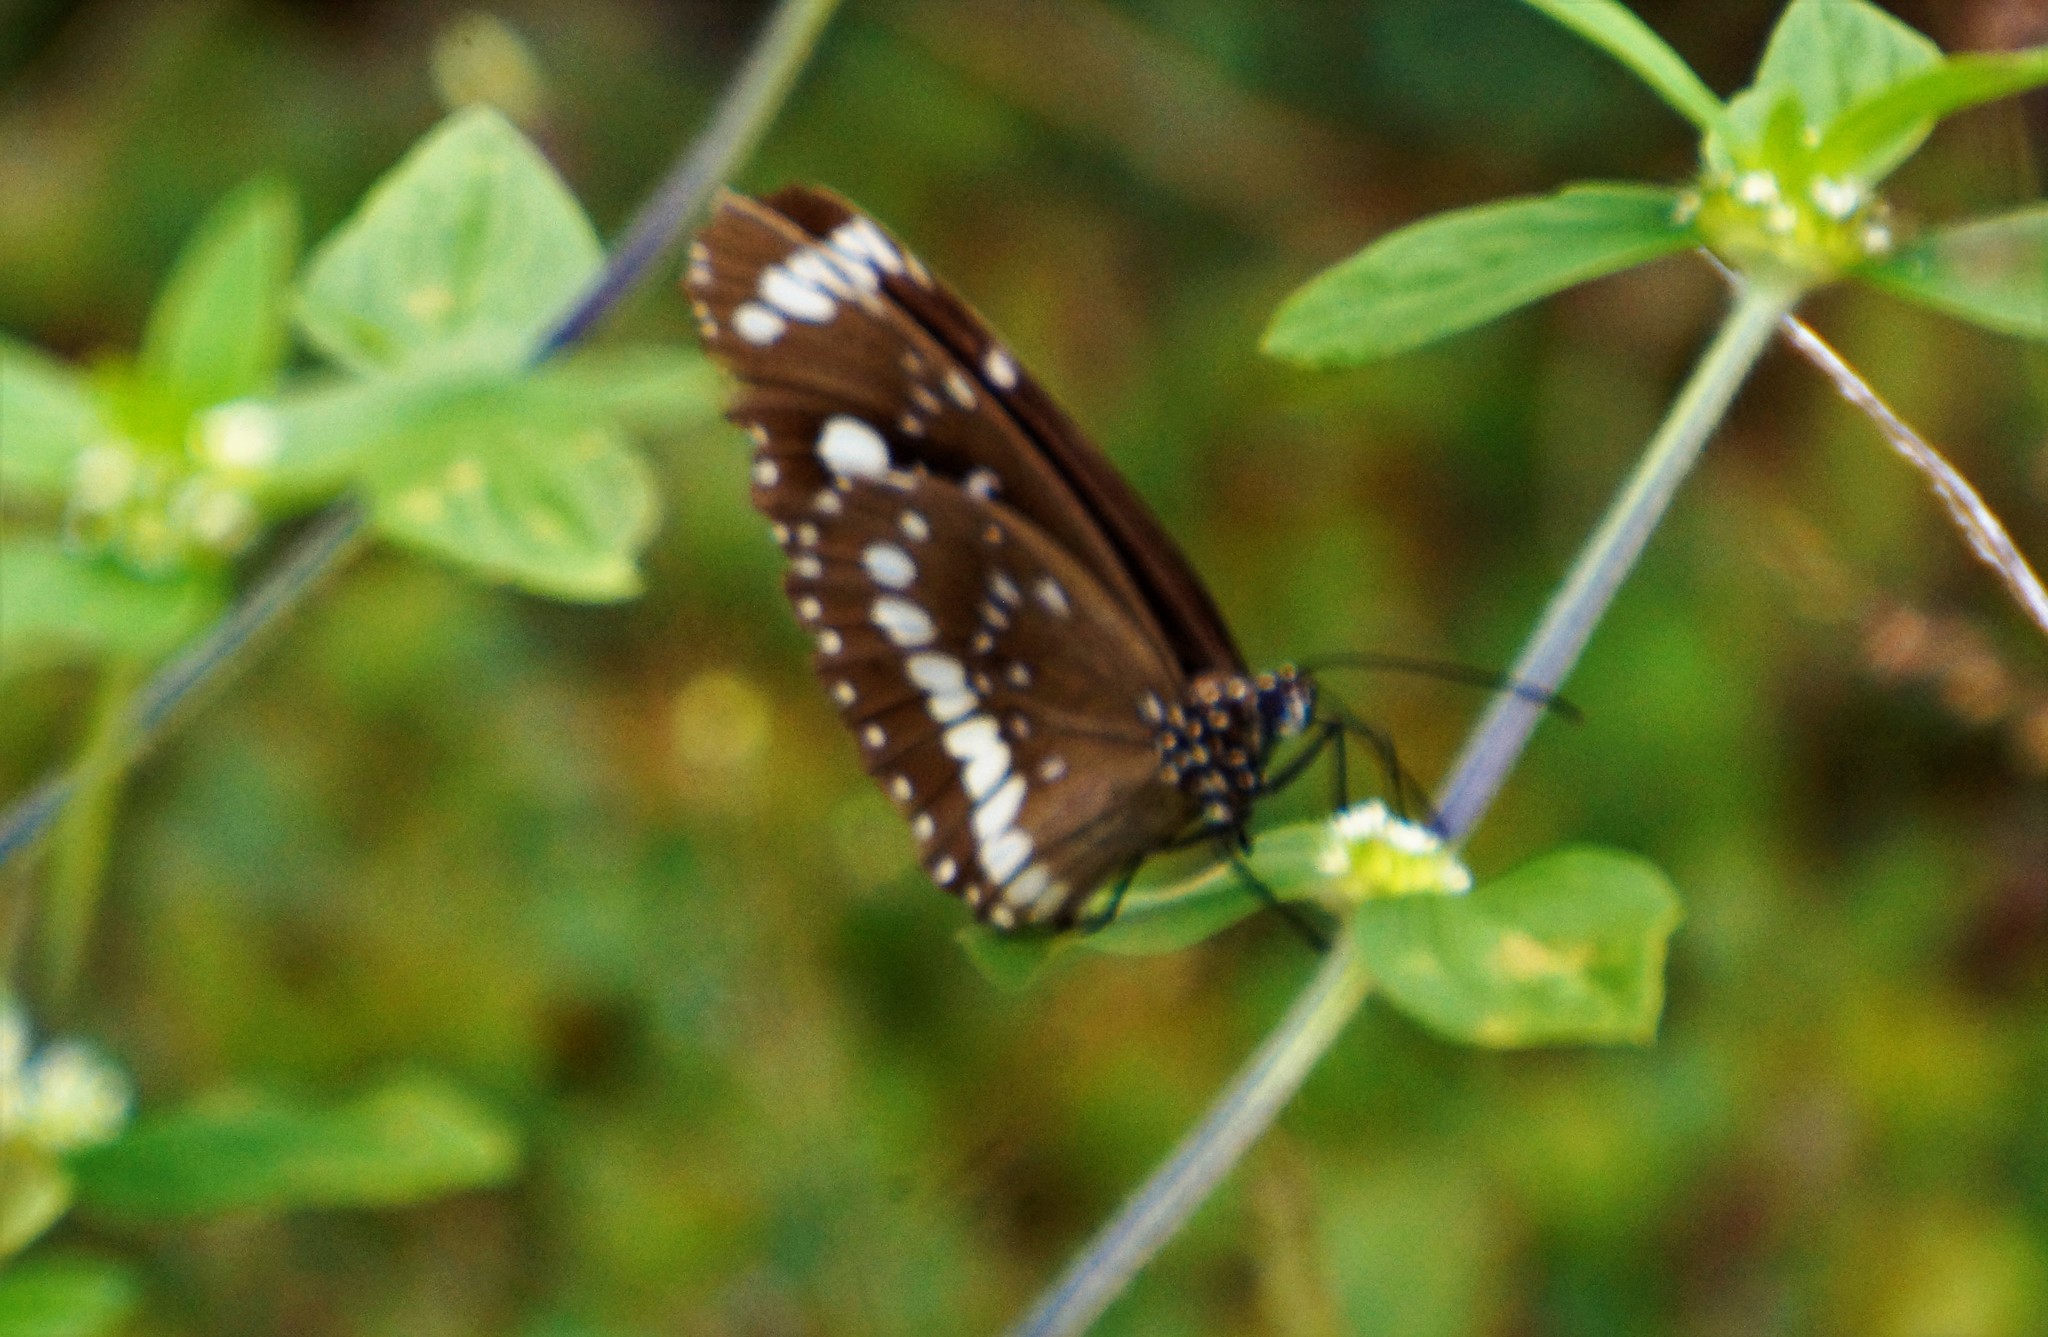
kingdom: Animalia
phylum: Arthropoda
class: Insecta
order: Lepidoptera
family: Nymphalidae
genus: Euploea
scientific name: Euploea core
